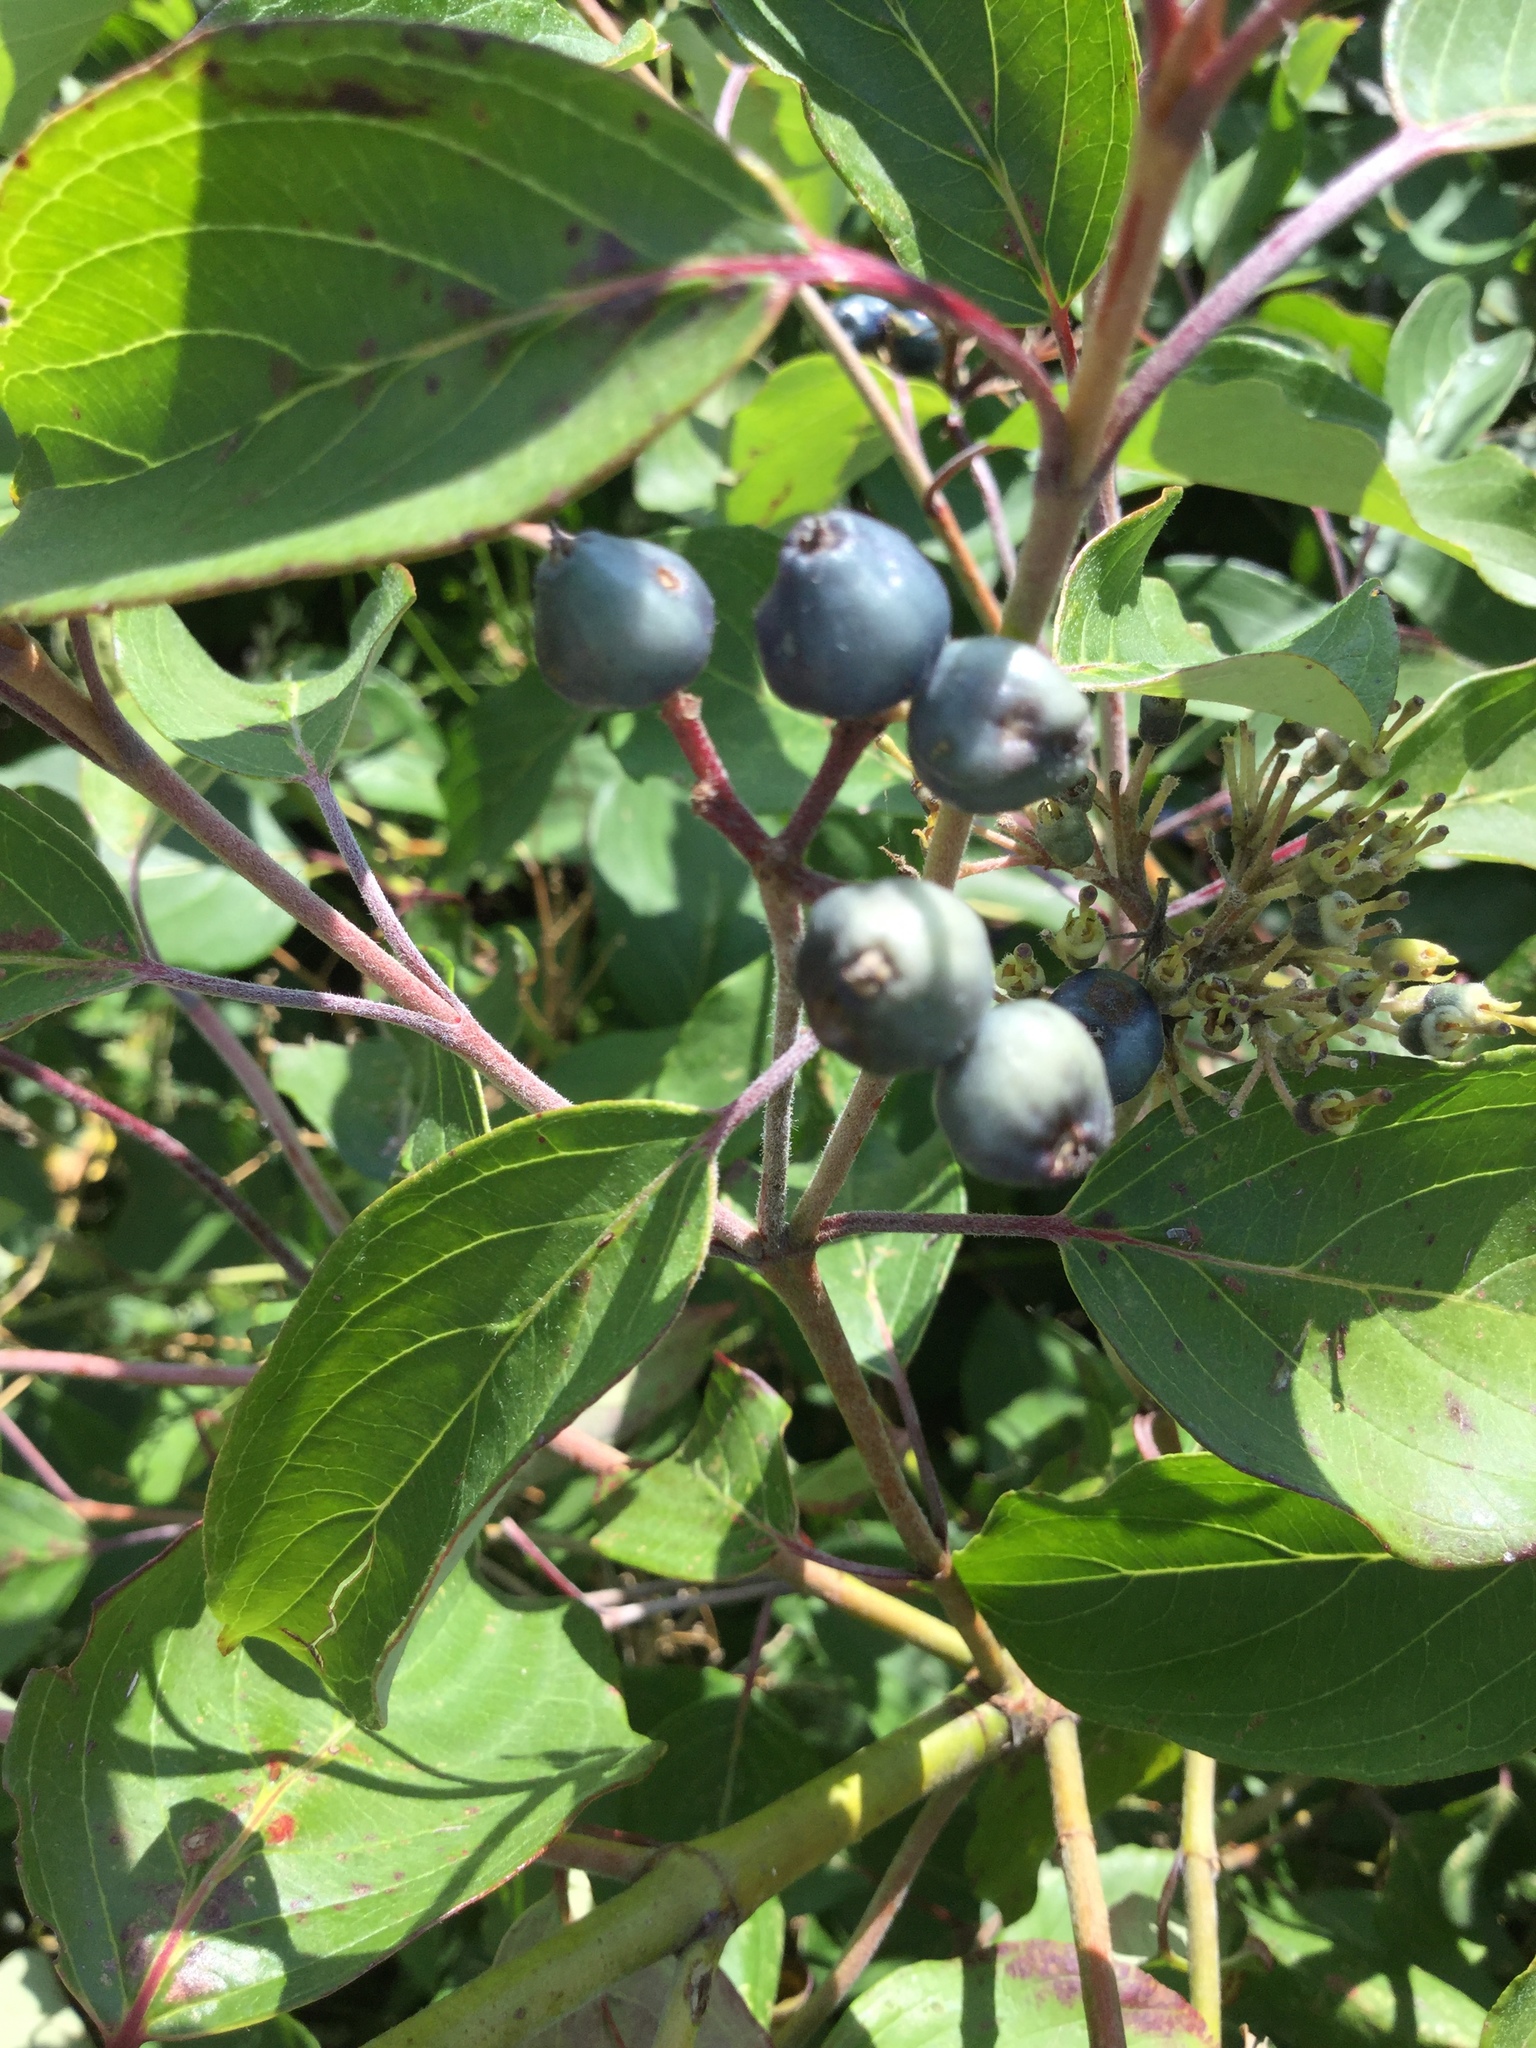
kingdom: Plantae
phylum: Tracheophyta
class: Magnoliopsida
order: Cornales
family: Cornaceae
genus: Cornus
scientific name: Cornus amomum
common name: Silky dogwood
